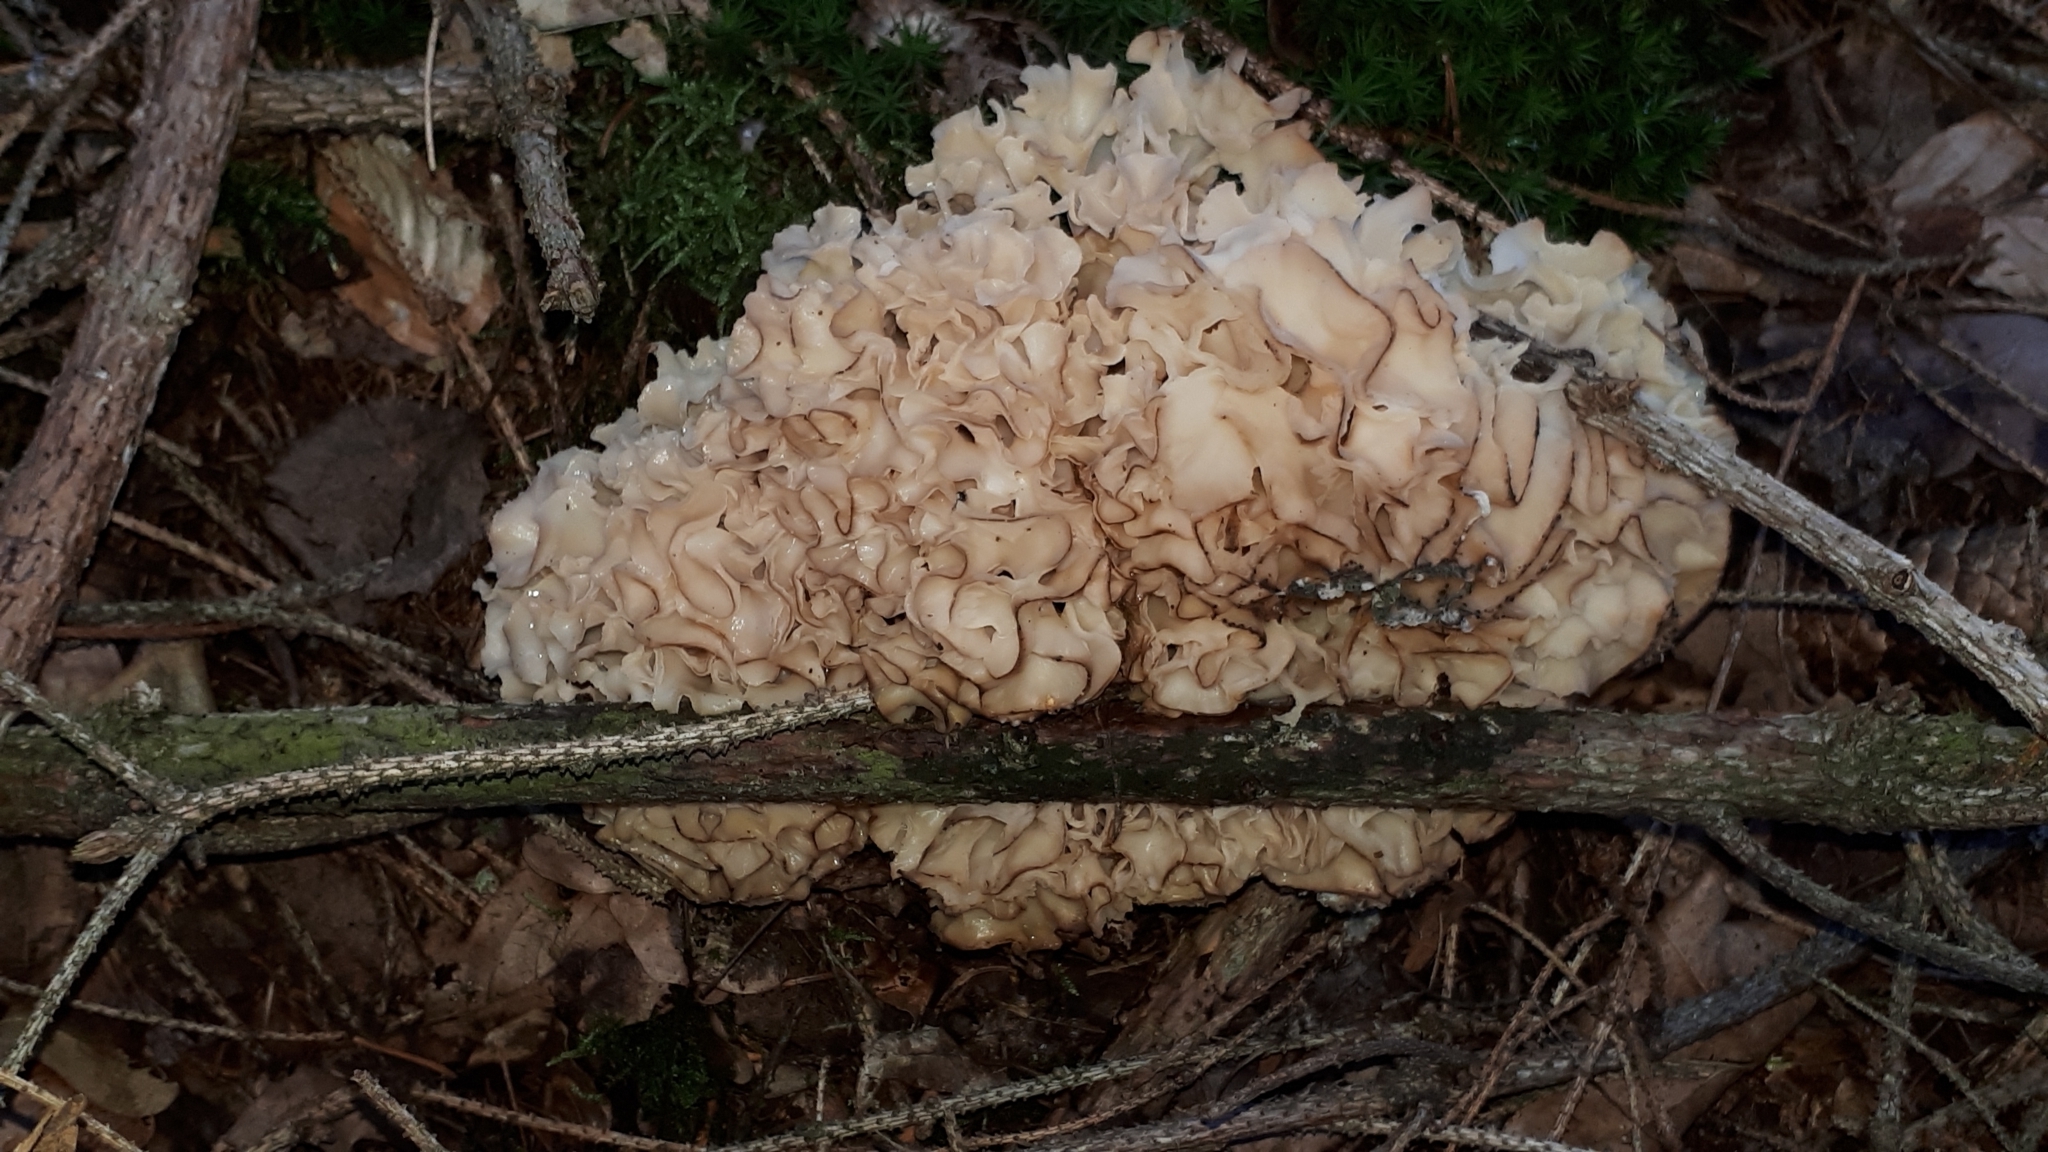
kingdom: Fungi
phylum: Basidiomycota
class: Agaricomycetes
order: Polyporales
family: Sparassidaceae
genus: Sparassis
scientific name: Sparassis crispa
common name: Brain fungus
